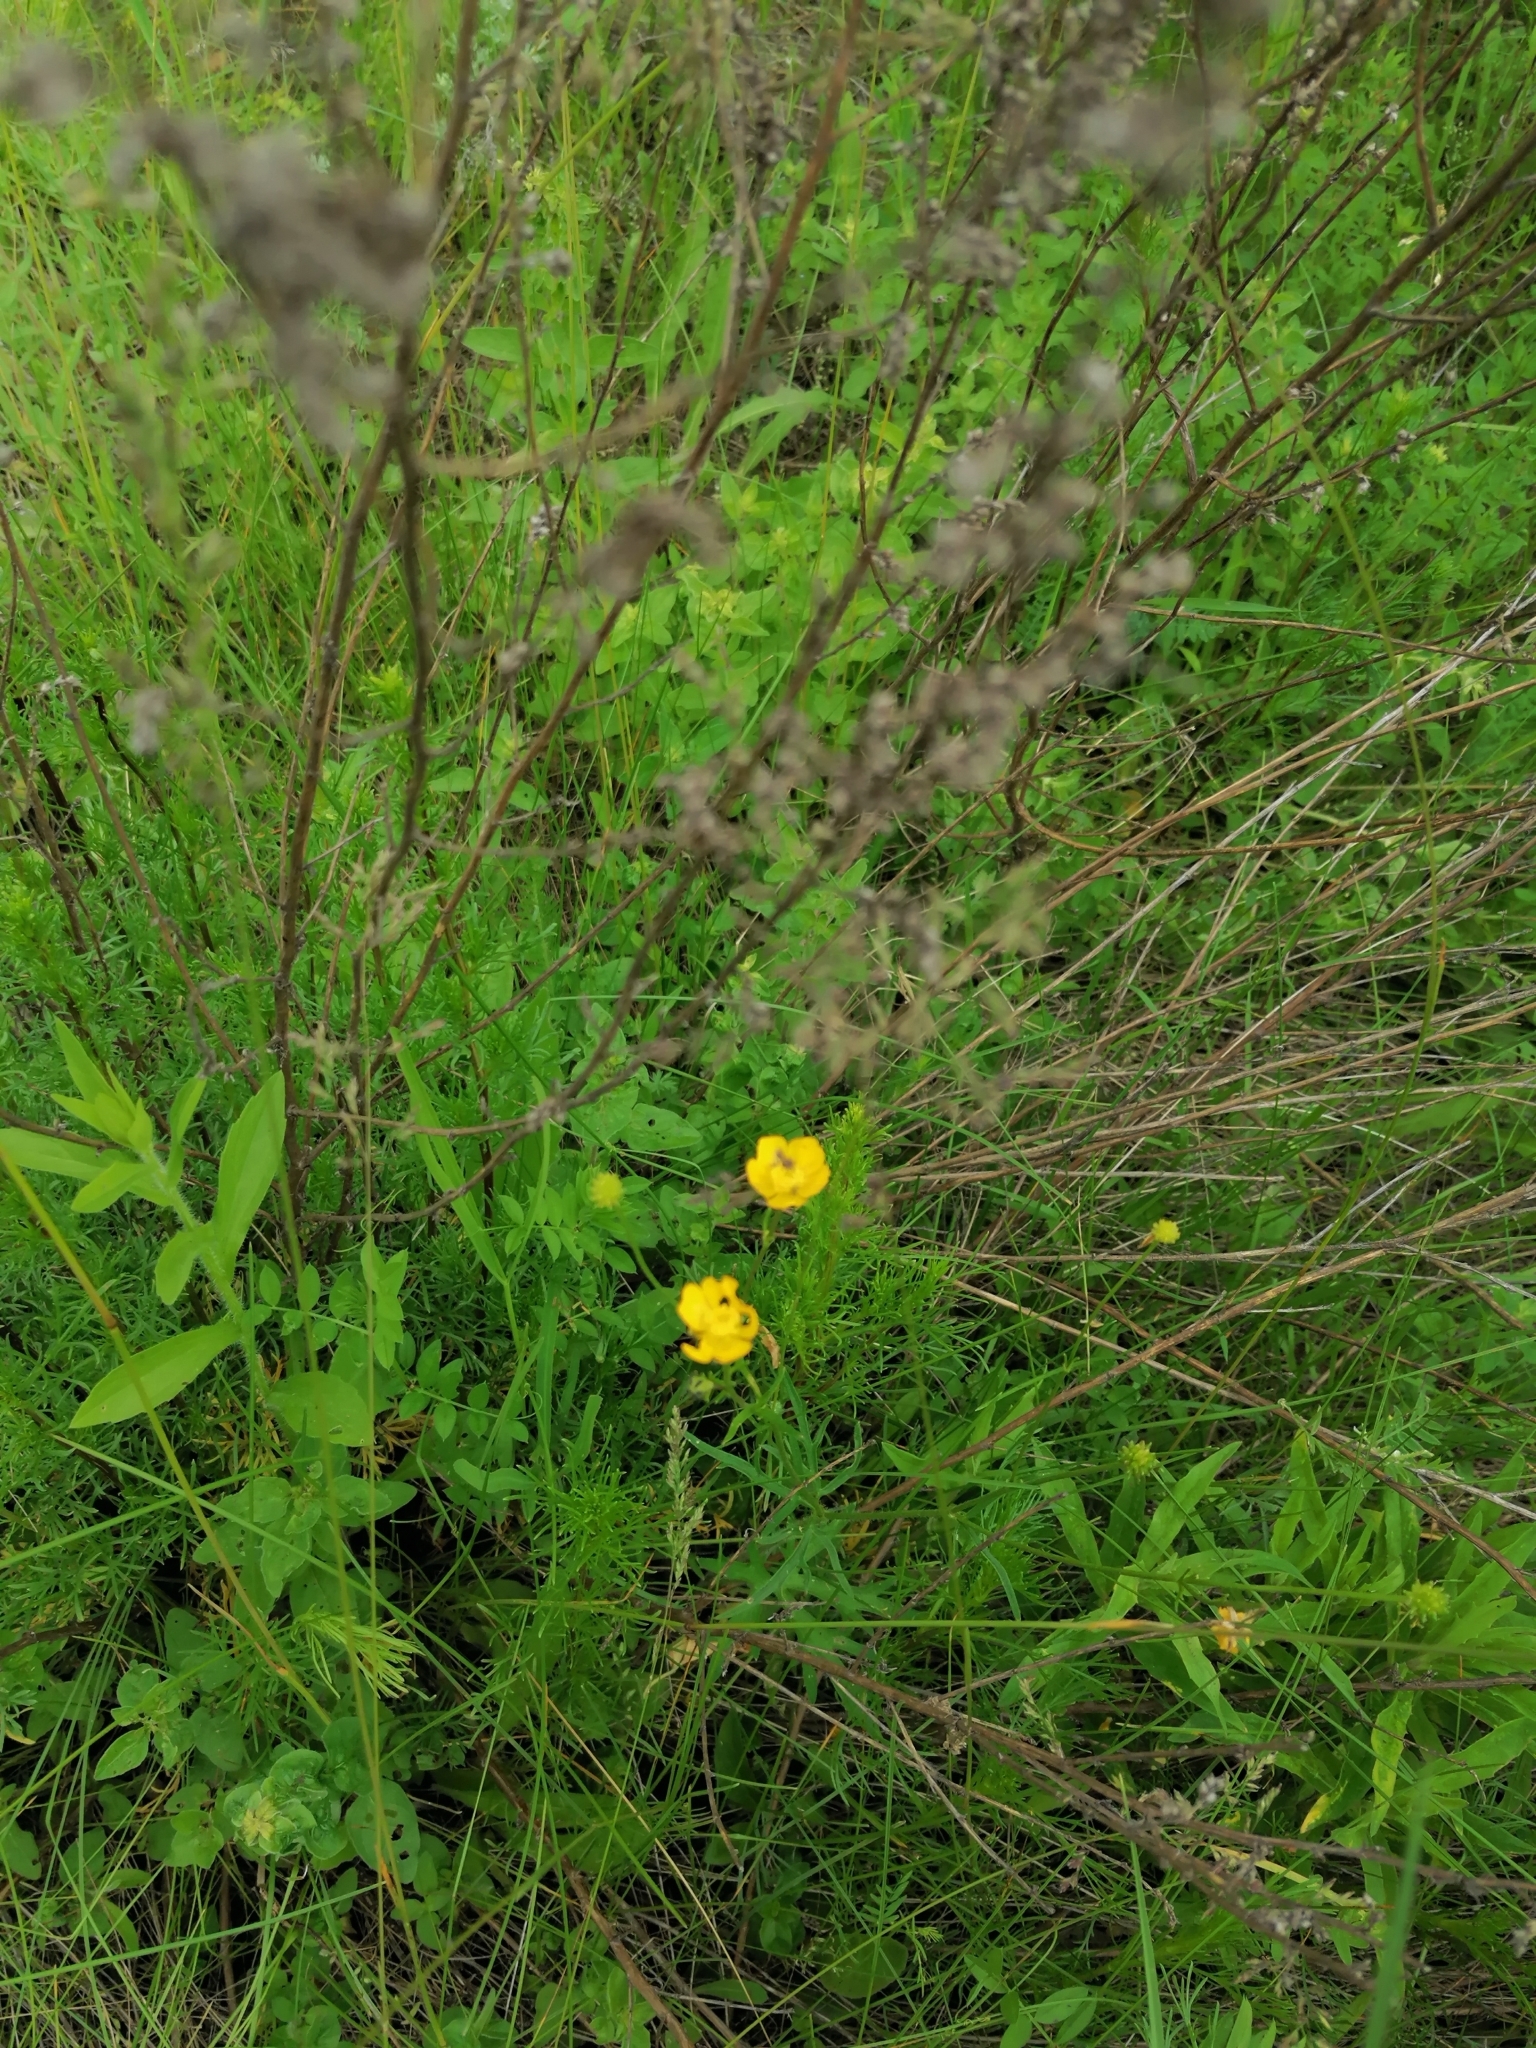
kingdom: Plantae
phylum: Tracheophyta
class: Magnoliopsida
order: Ranunculales
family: Ranunculaceae
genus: Ranunculus
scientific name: Ranunculus acris
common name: Meadow buttercup
